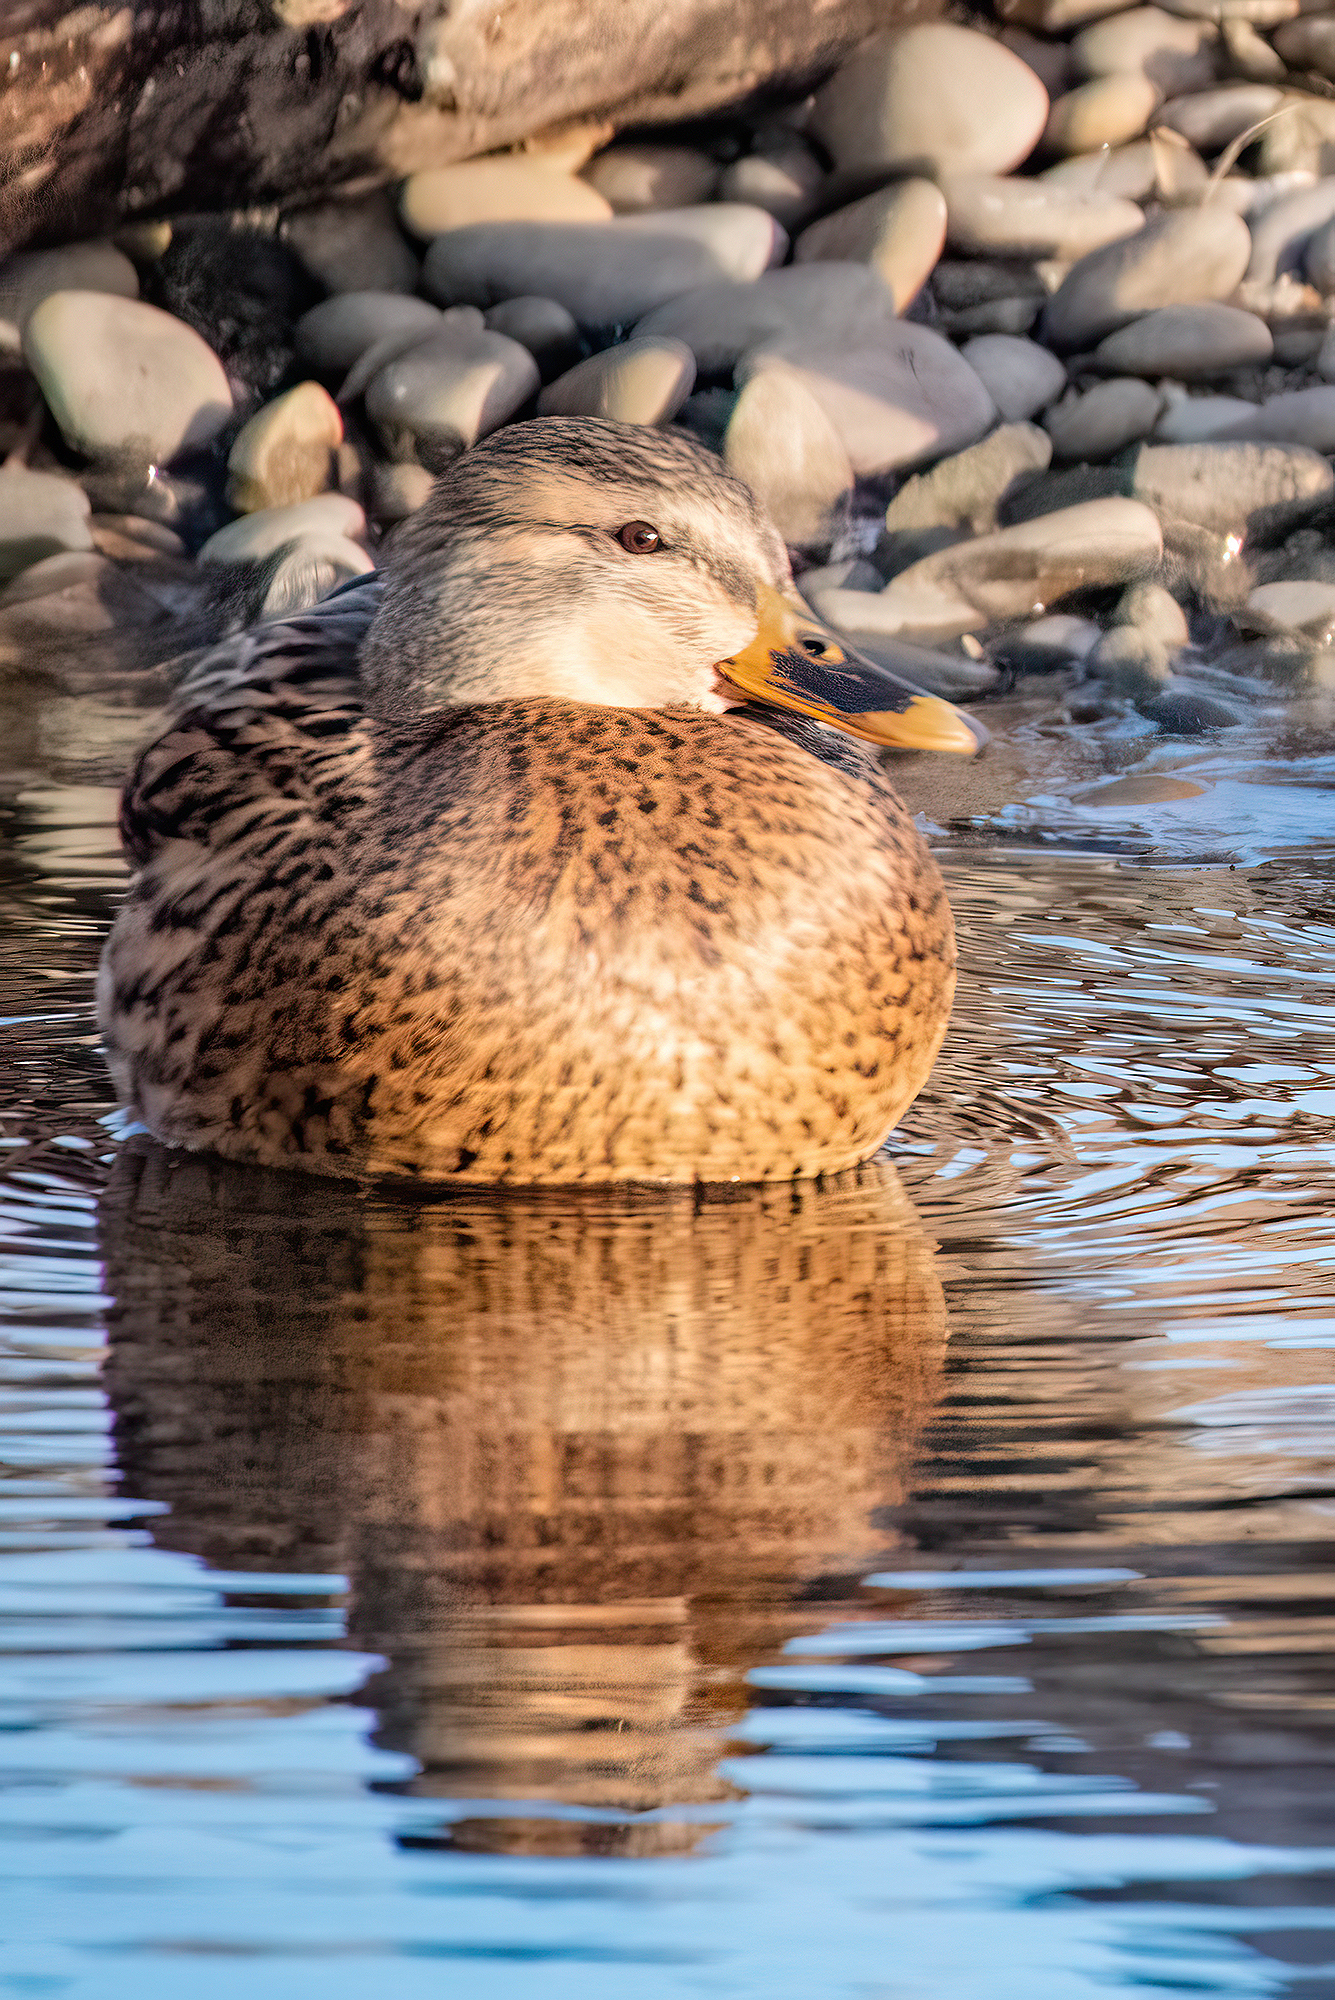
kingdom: Animalia
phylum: Chordata
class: Aves
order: Anseriformes
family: Anatidae
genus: Anas
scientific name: Anas platyrhynchos
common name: Mallard
